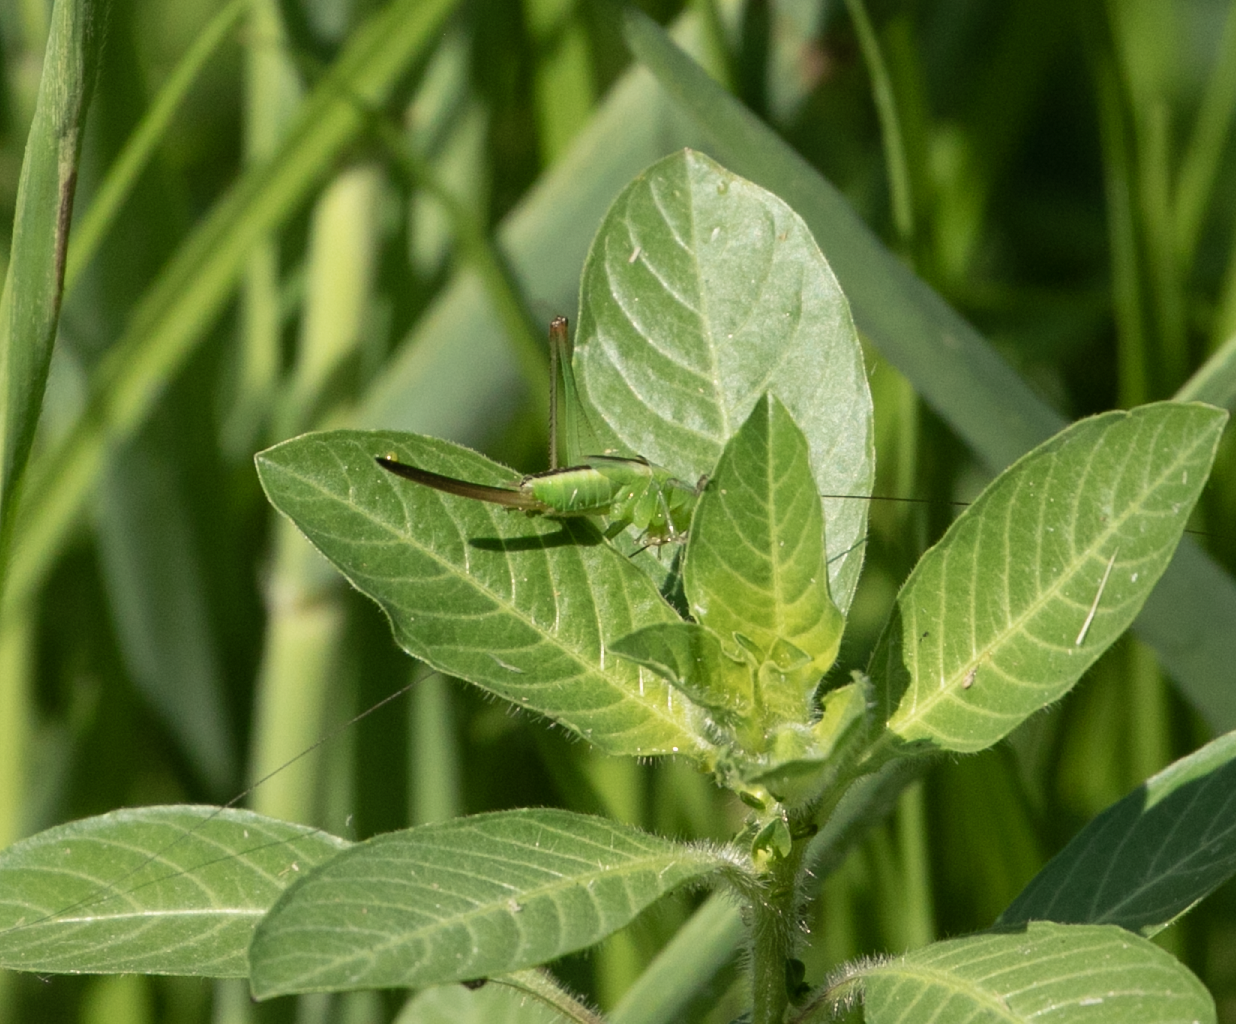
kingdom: Animalia
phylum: Arthropoda
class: Insecta
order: Orthoptera
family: Tettigoniidae
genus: Conocephalus
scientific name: Conocephalus fuscus
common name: Long-winged conehead
